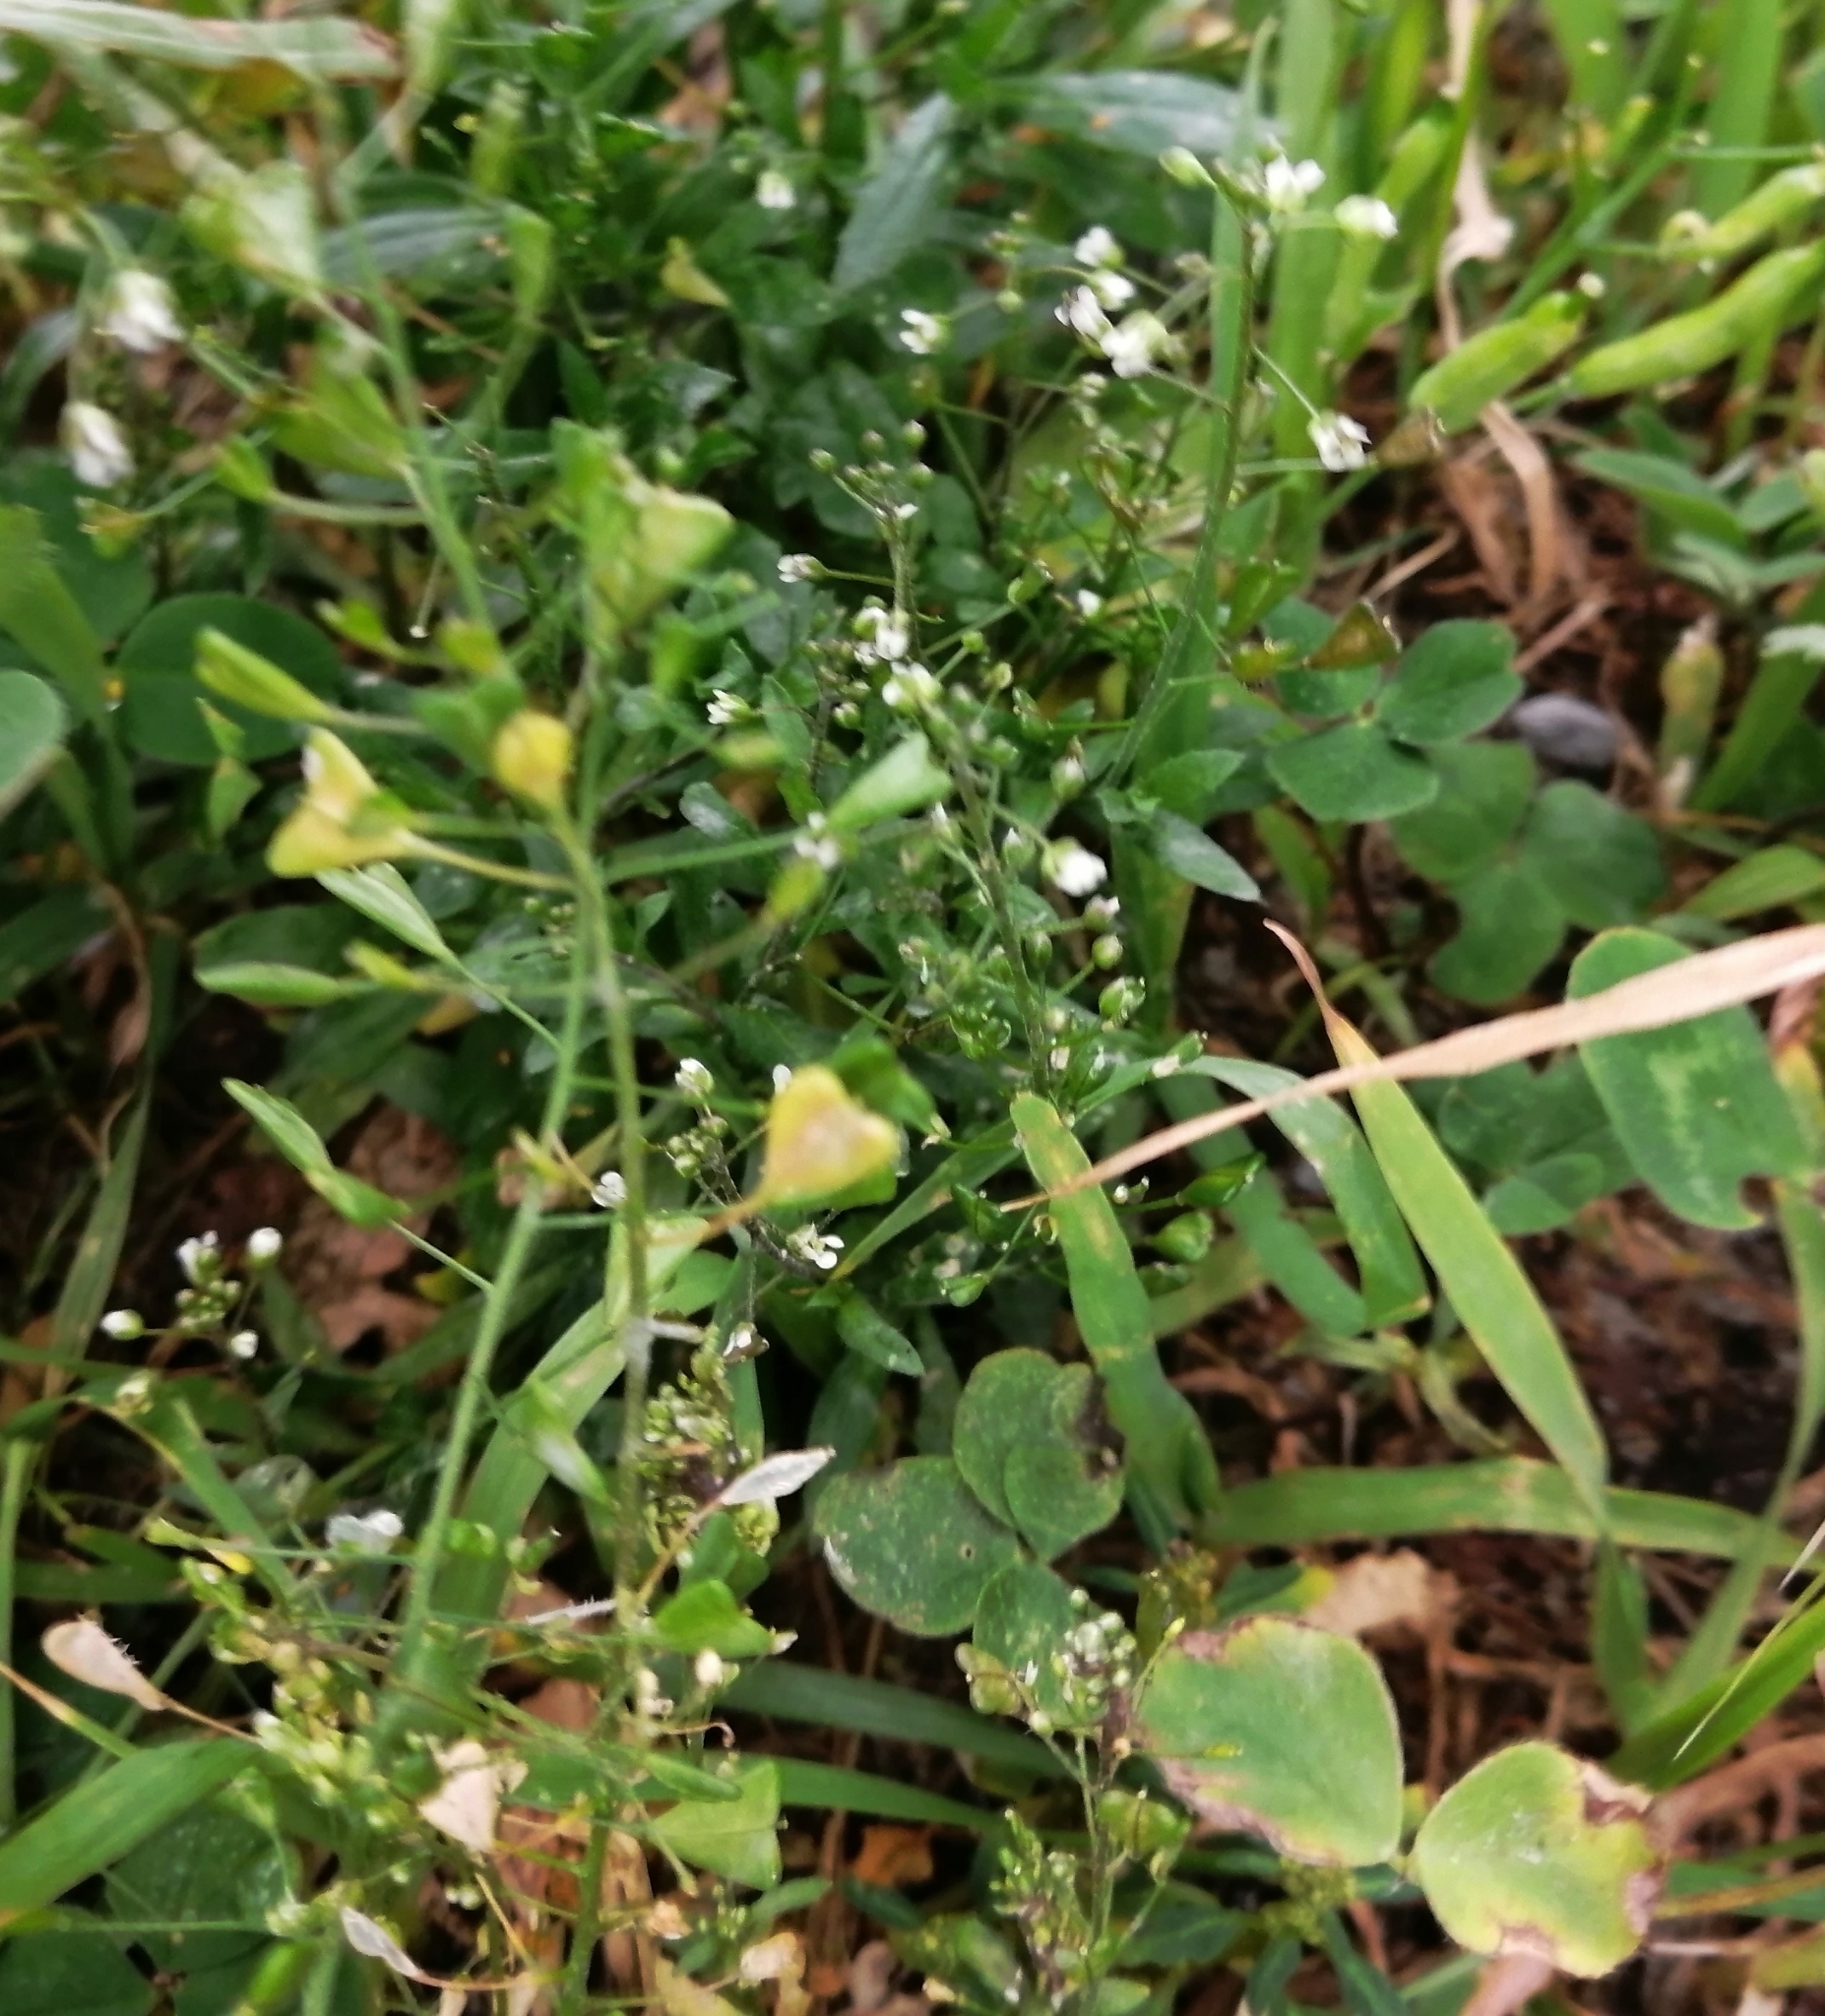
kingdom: Plantae
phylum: Tracheophyta
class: Magnoliopsida
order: Brassicales
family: Brassicaceae
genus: Capsella
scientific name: Capsella bursa-pastoris
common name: Shepherd's purse
